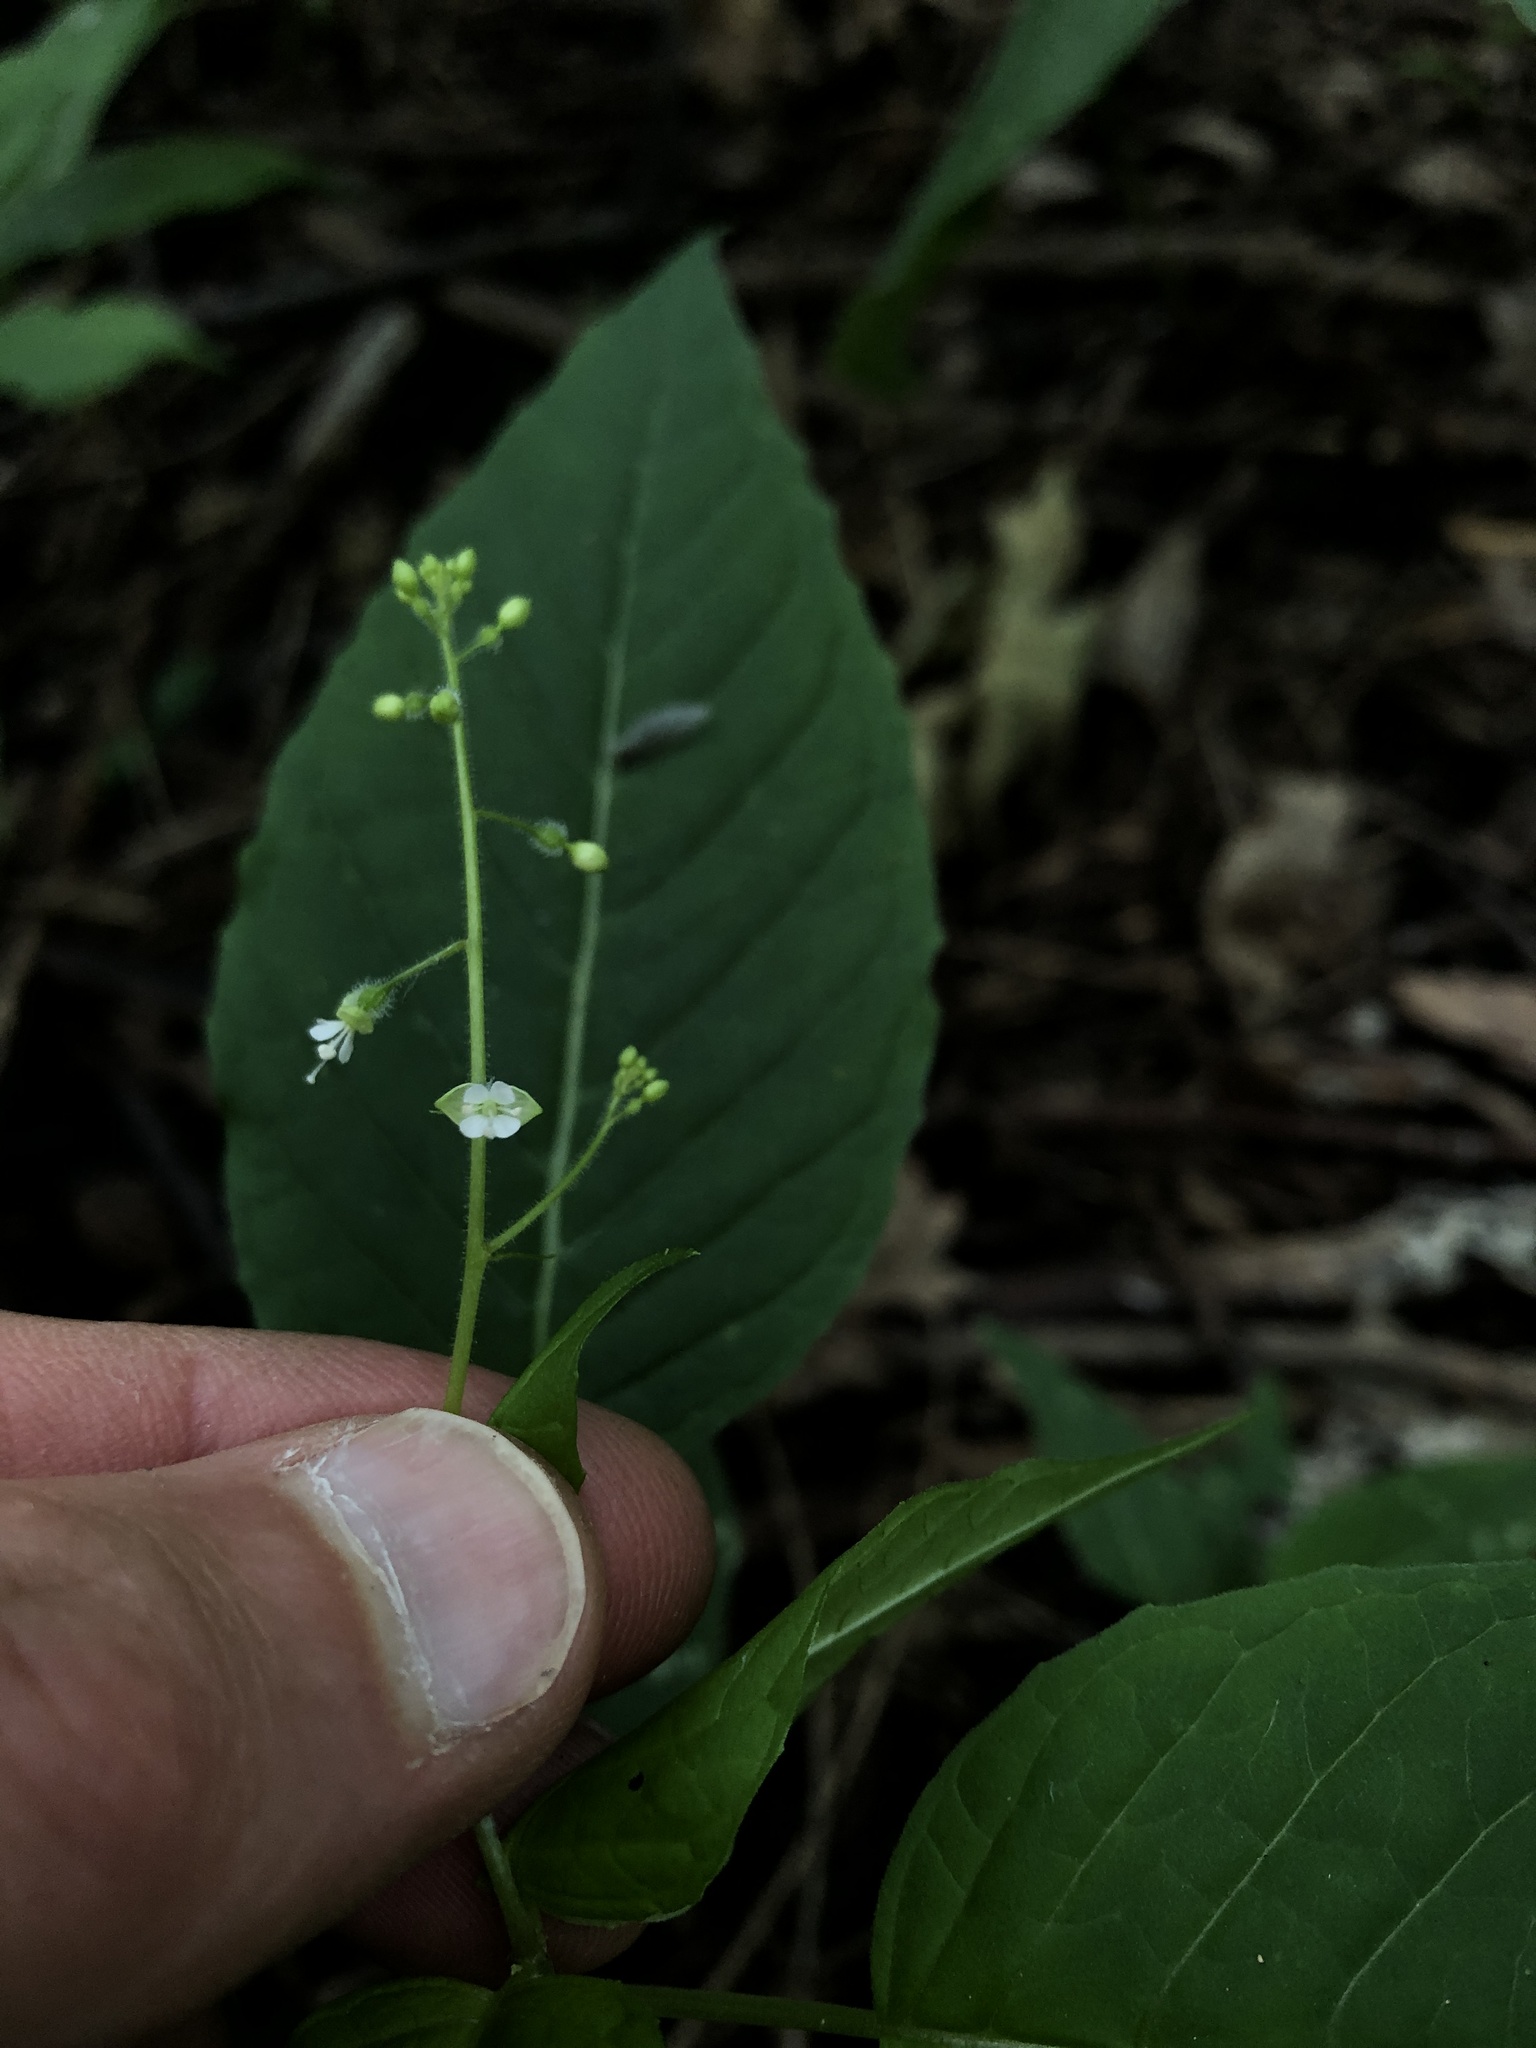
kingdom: Plantae
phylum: Tracheophyta
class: Magnoliopsida
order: Myrtales
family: Onagraceae
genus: Circaea
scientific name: Circaea canadensis
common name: Broad-leaved enchanter's nightshade
